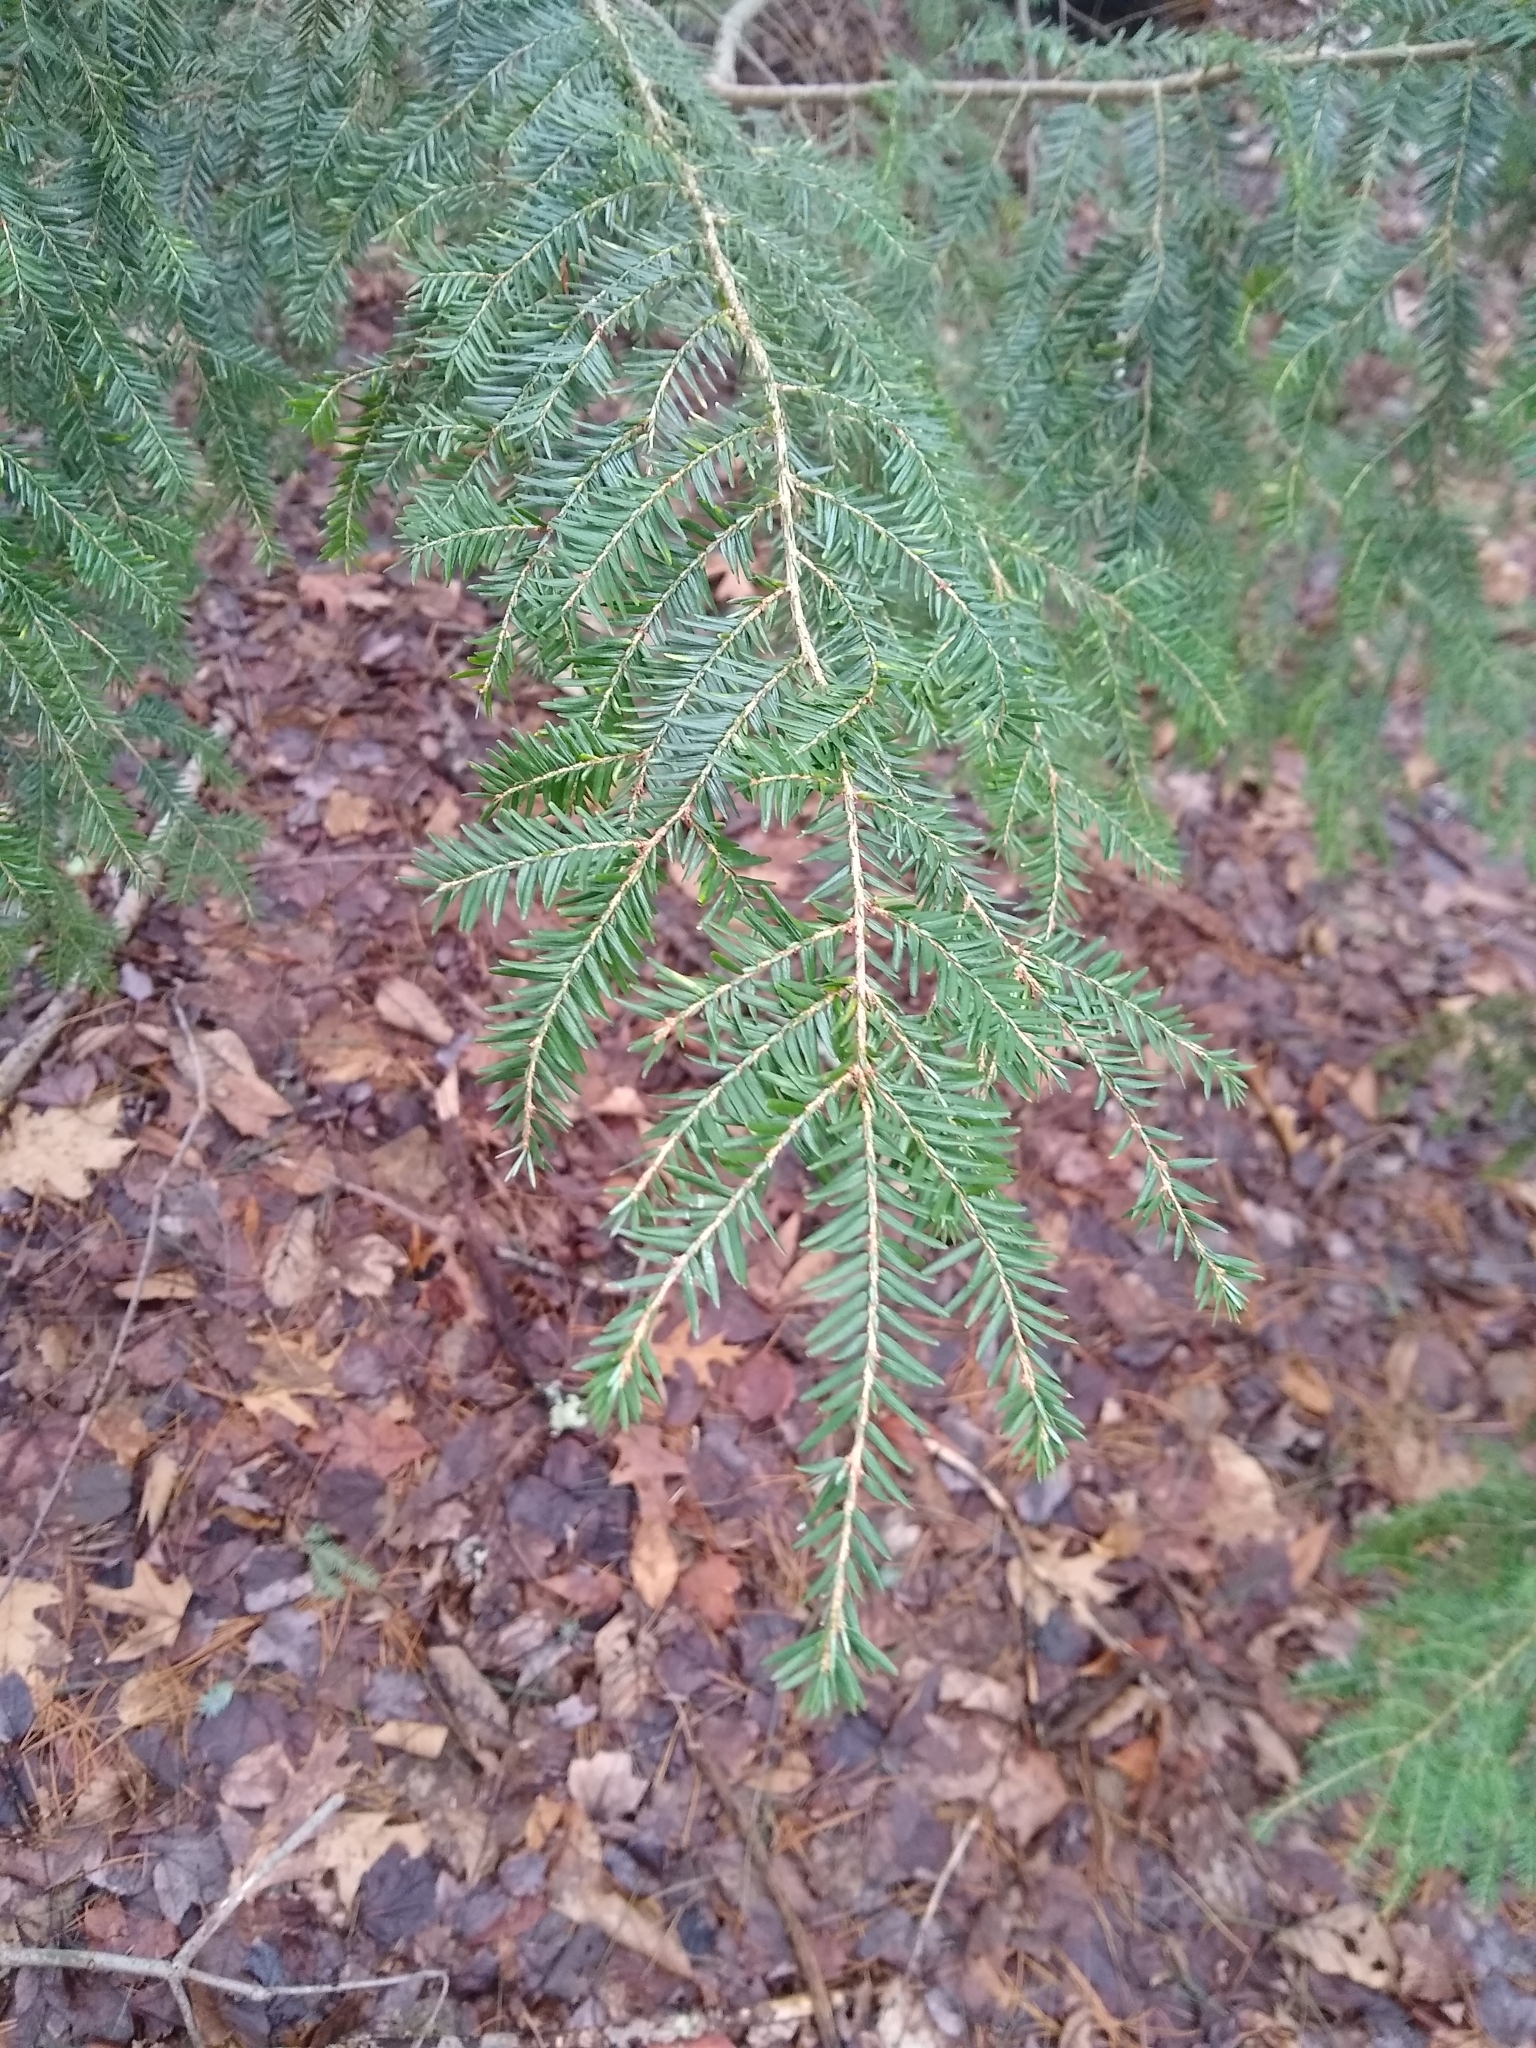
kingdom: Plantae
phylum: Tracheophyta
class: Pinopsida
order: Pinales
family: Pinaceae
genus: Tsuga
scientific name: Tsuga canadensis
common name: Eastern hemlock
